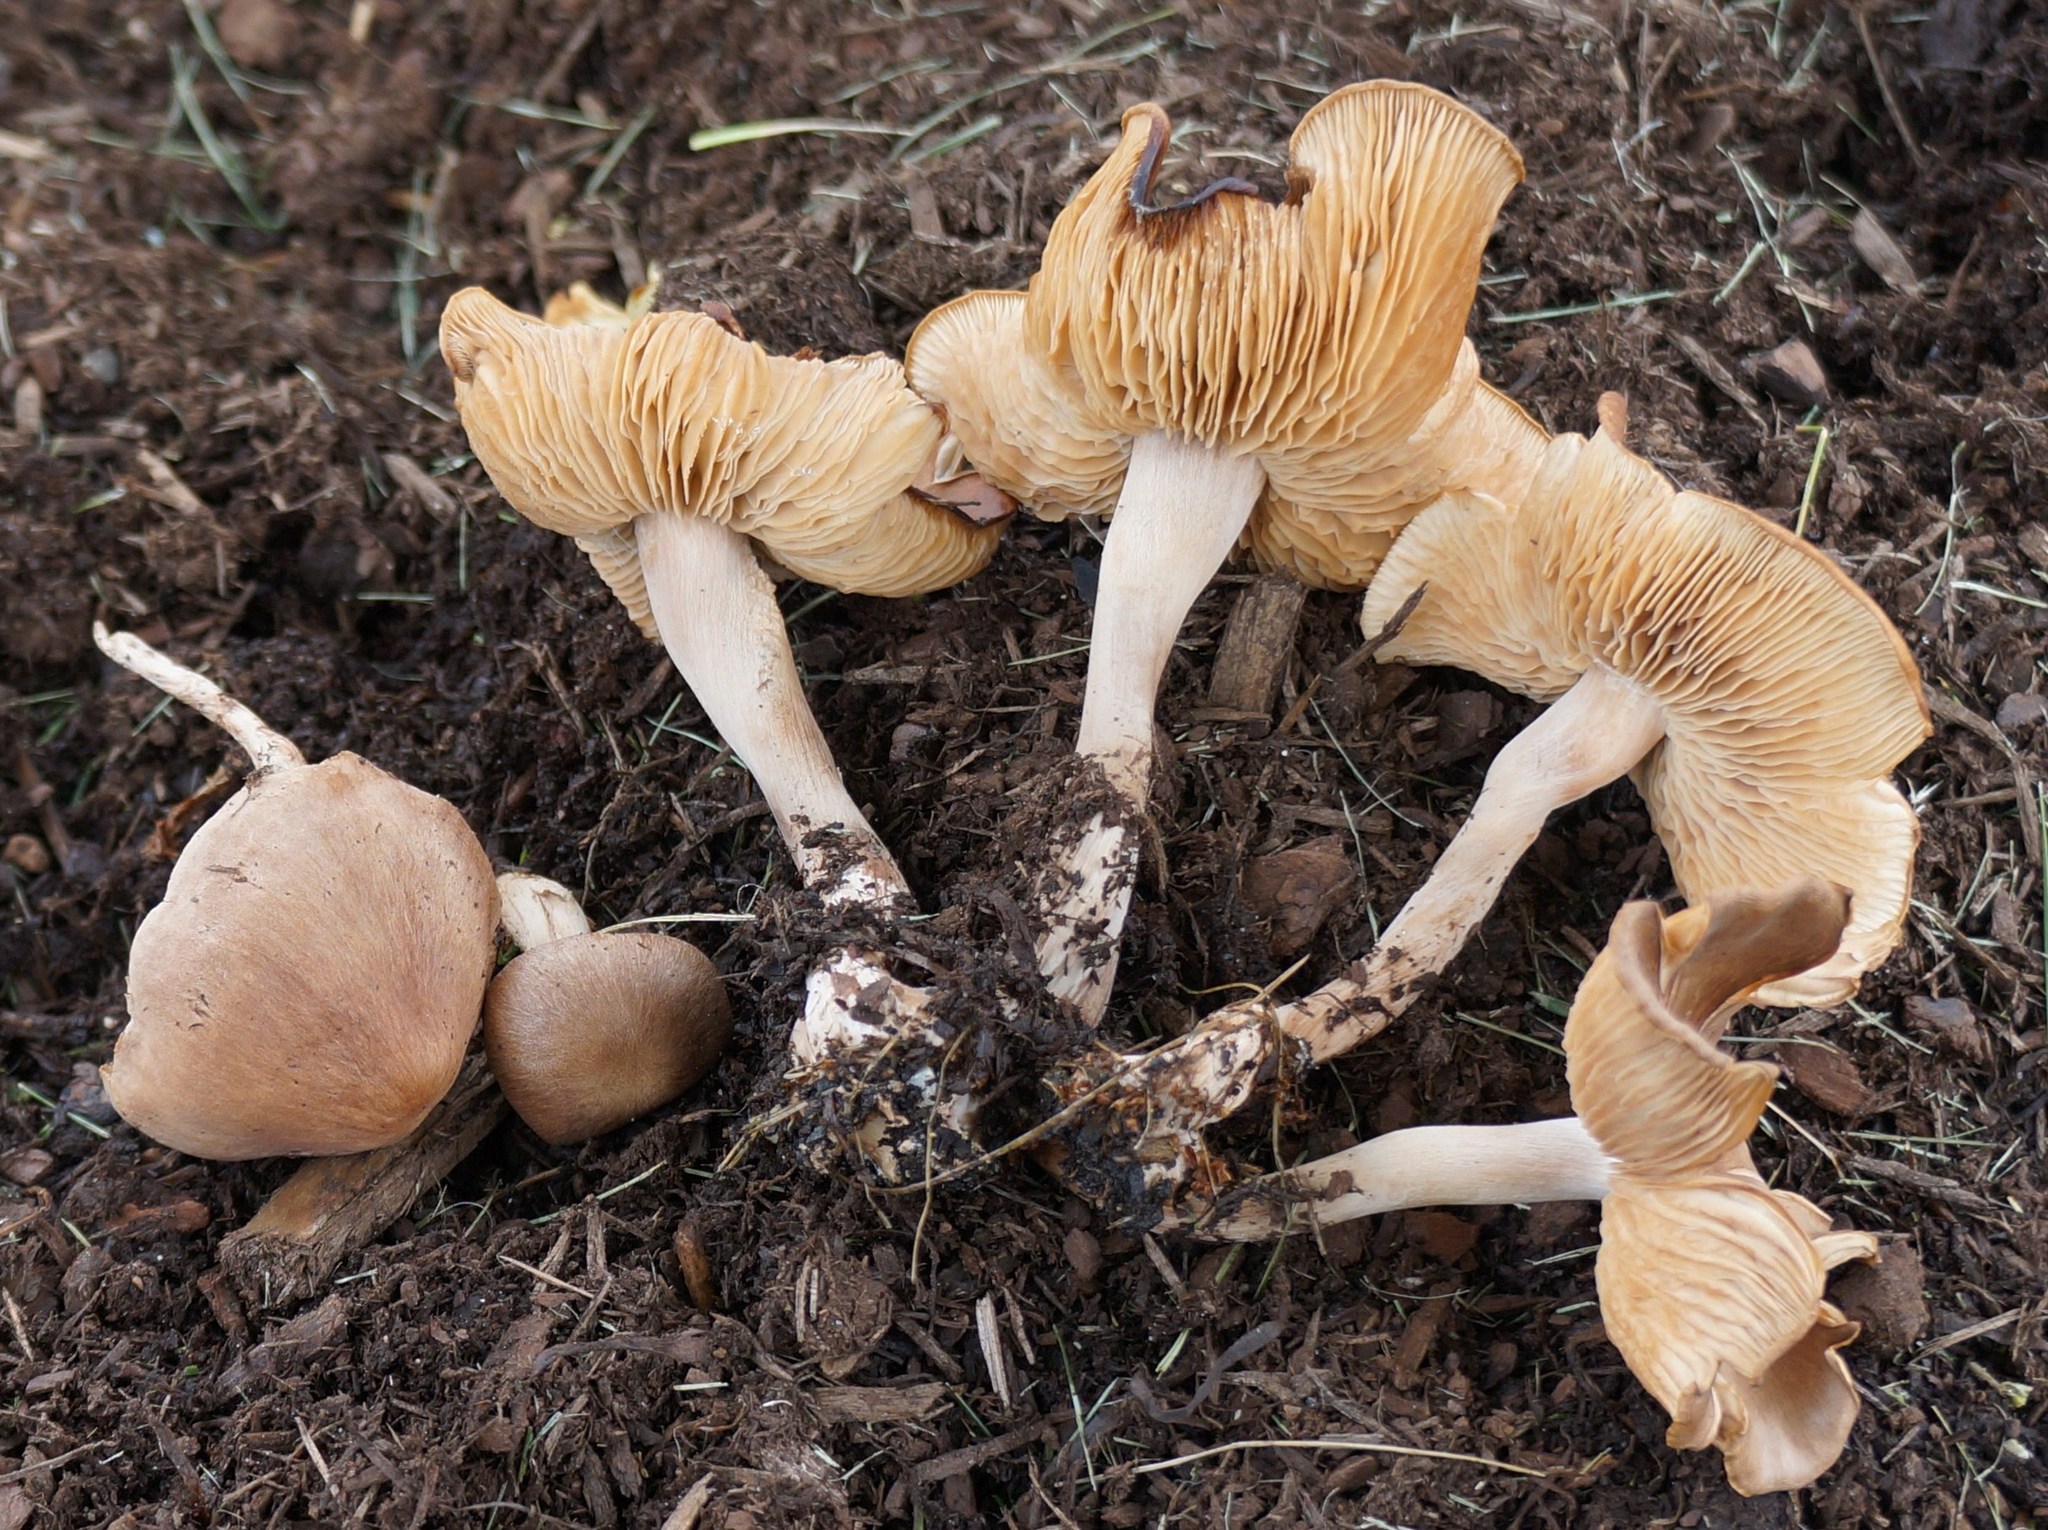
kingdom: Fungi
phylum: Basidiomycota
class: Agaricomycetes
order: Agaricales
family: Omphalotaceae
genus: Collybiopsis
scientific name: Collybiopsis luxurians
